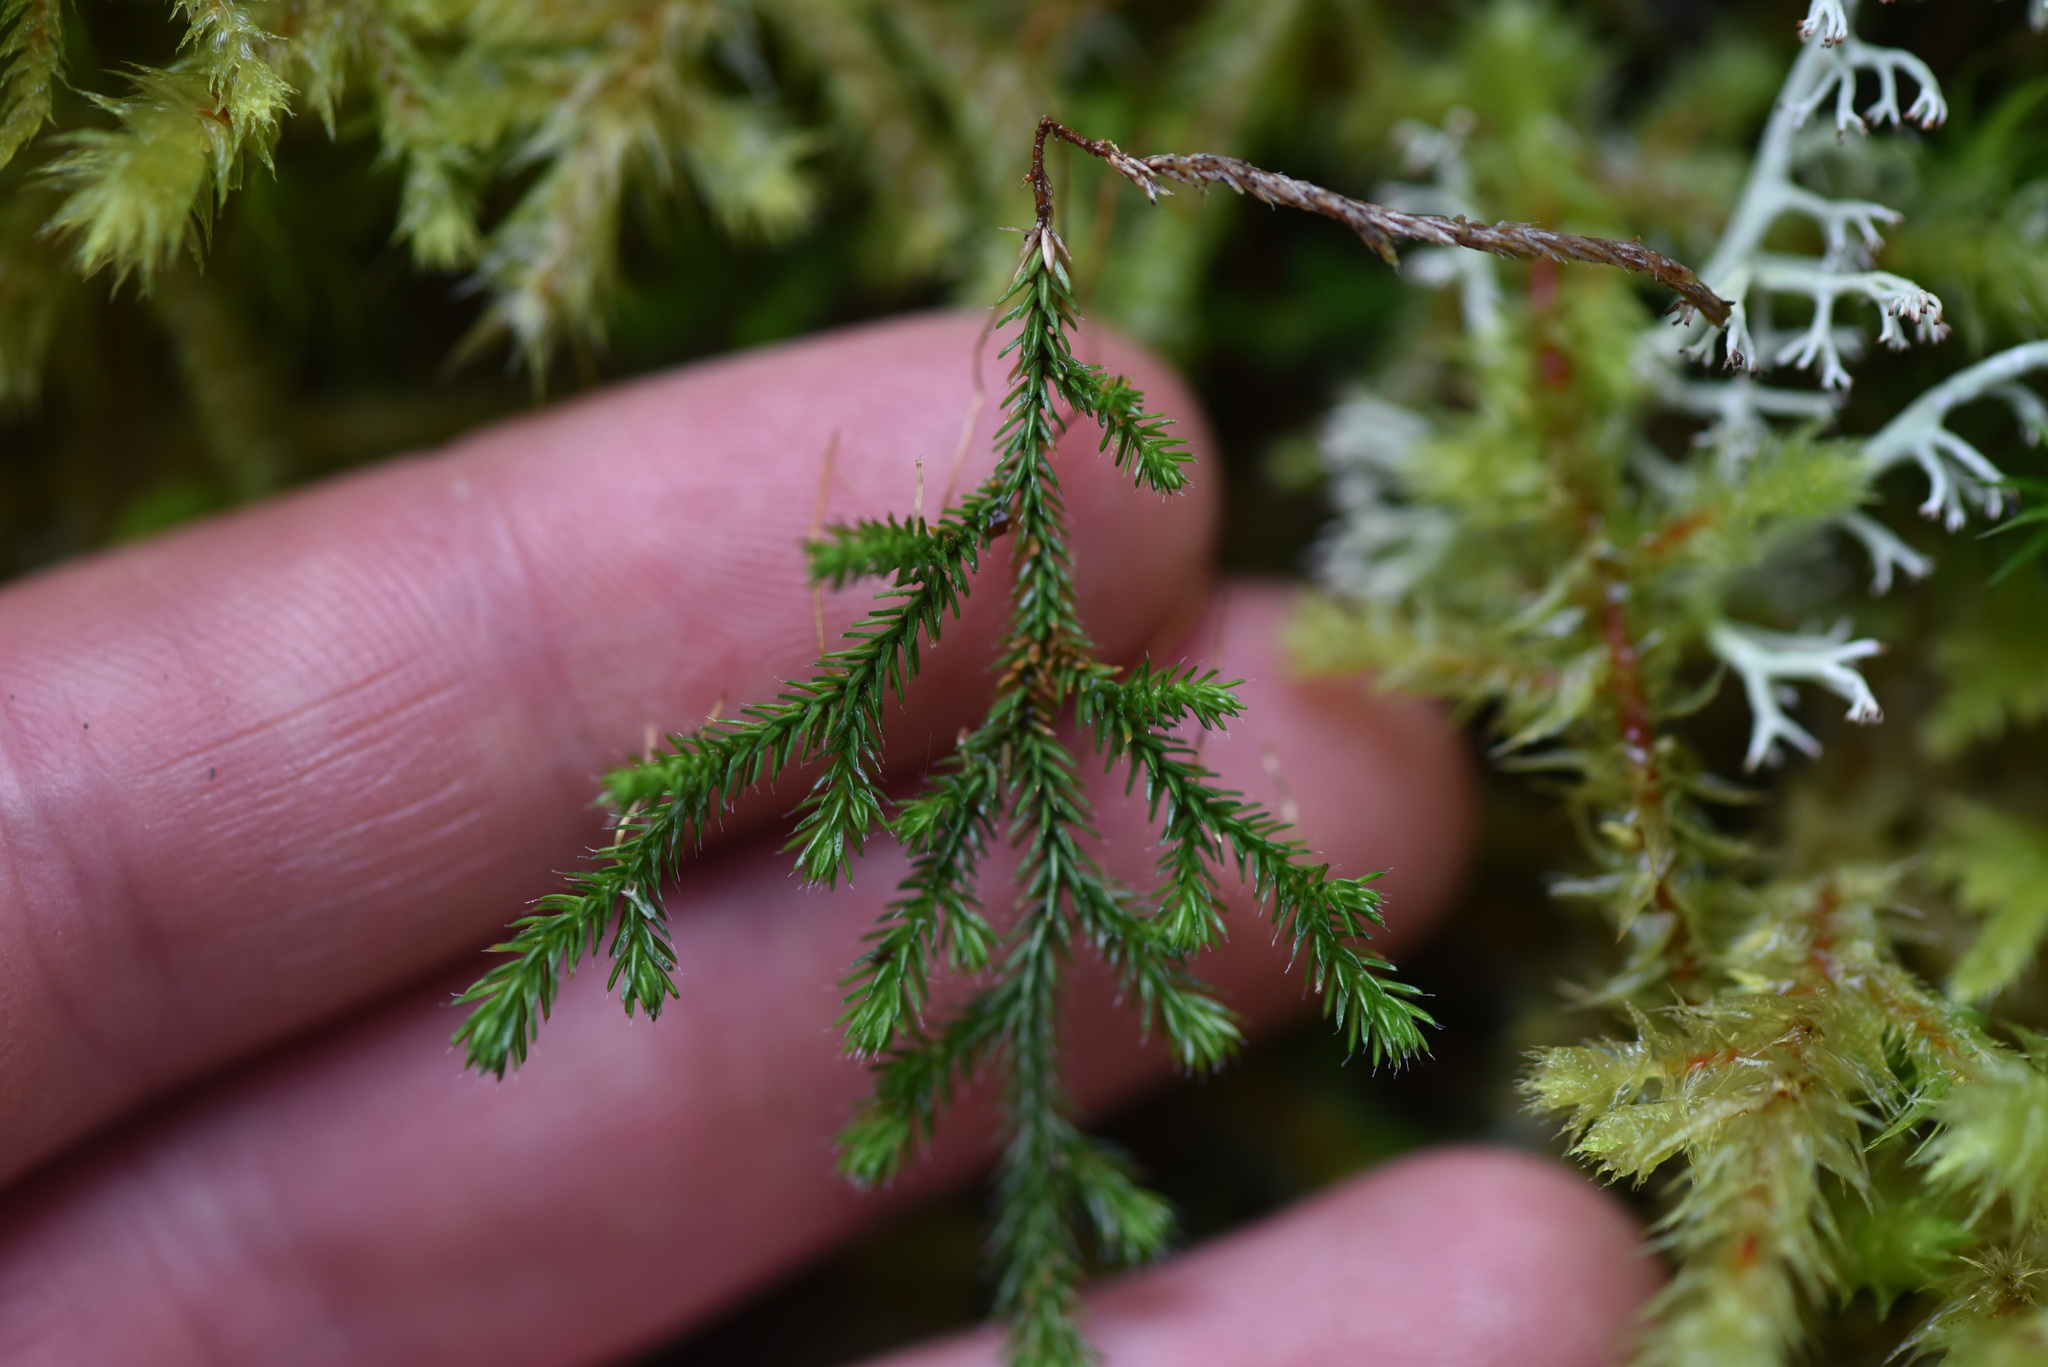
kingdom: Plantae
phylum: Tracheophyta
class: Lycopodiopsida
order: Selaginellales
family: Selaginellaceae
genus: Selaginella
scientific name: Selaginella wallacei
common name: Wallace's selaginella
